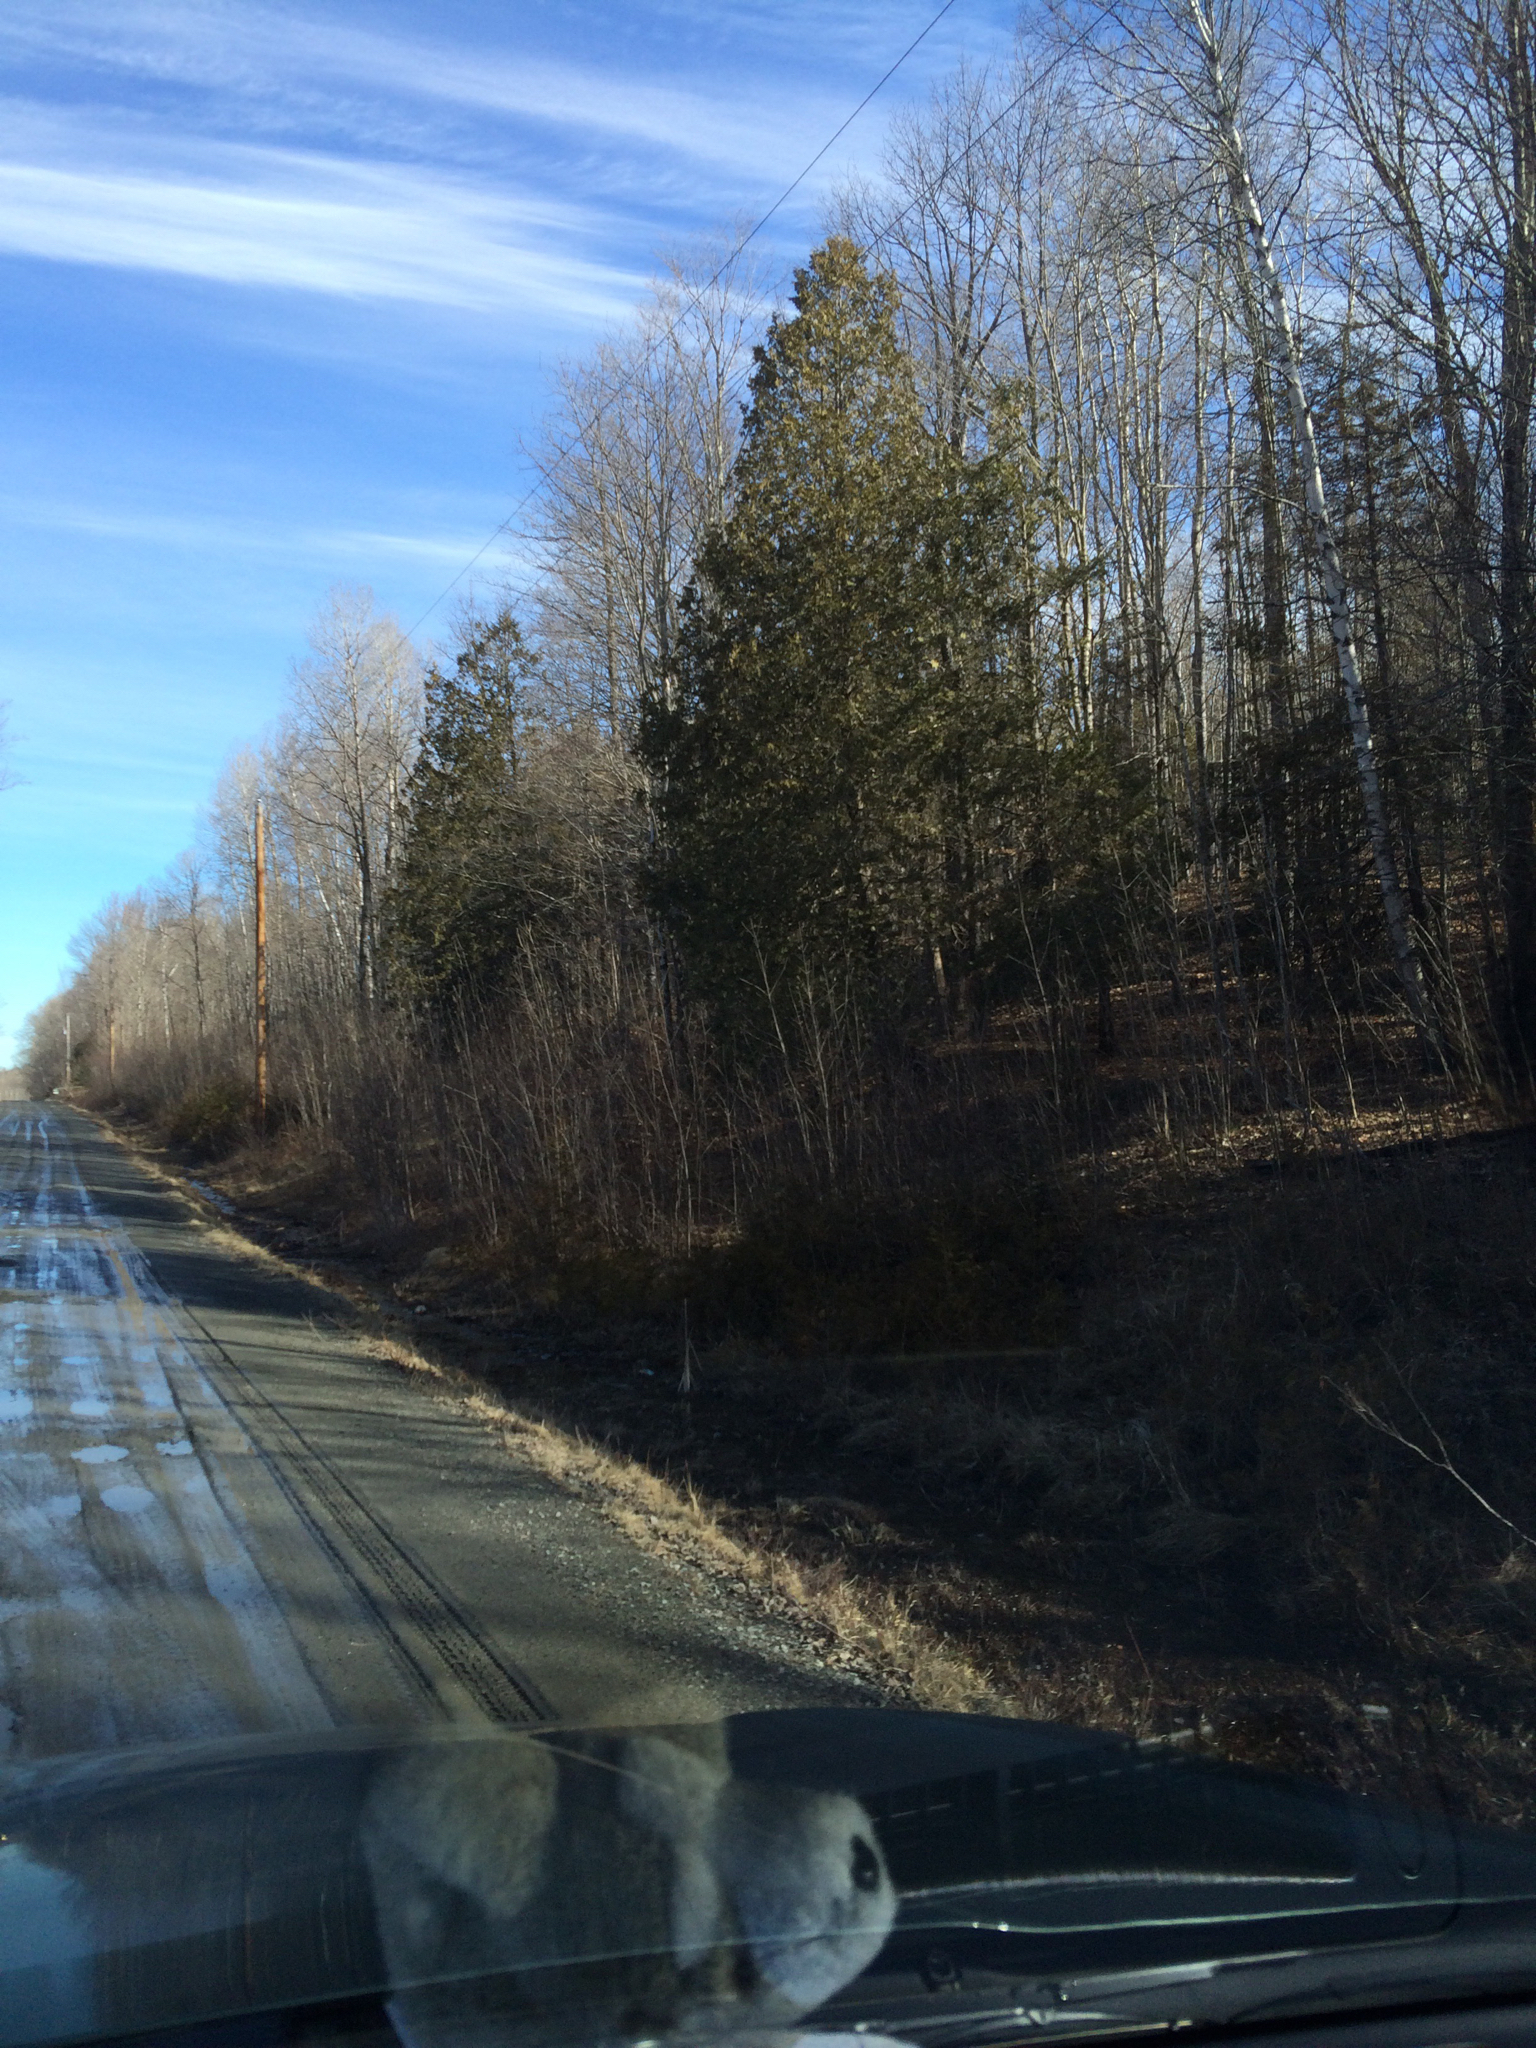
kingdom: Plantae
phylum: Tracheophyta
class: Pinopsida
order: Pinales
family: Cupressaceae
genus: Thuja
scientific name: Thuja occidentalis
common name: Northern white-cedar
